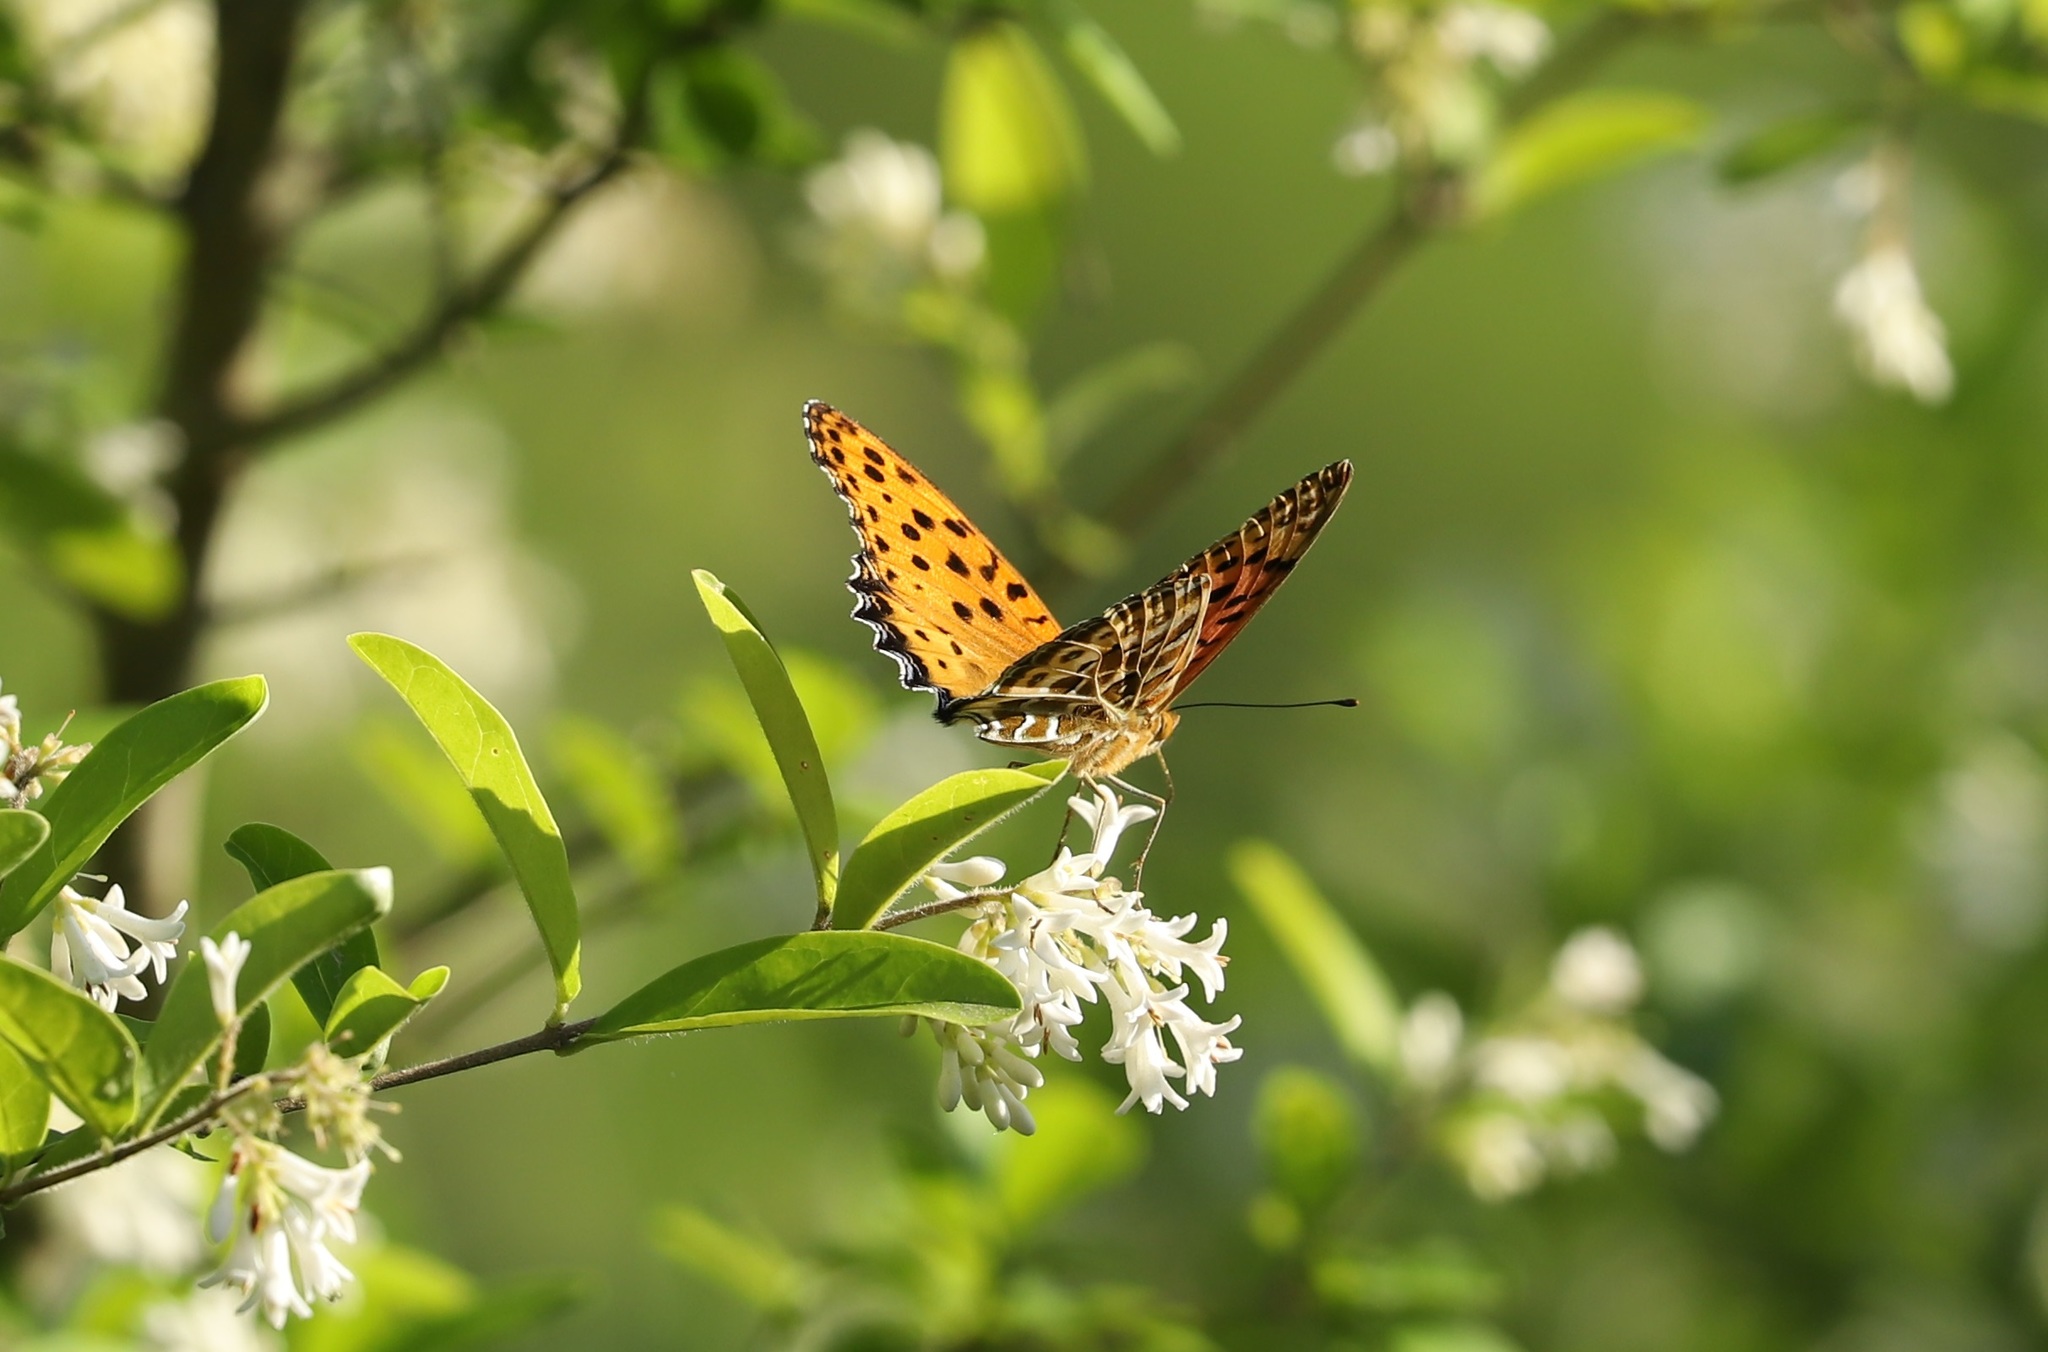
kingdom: Animalia
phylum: Arthropoda
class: Insecta
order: Lepidoptera
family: Nymphalidae
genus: Argynnis
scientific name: Argynnis hyperbius
